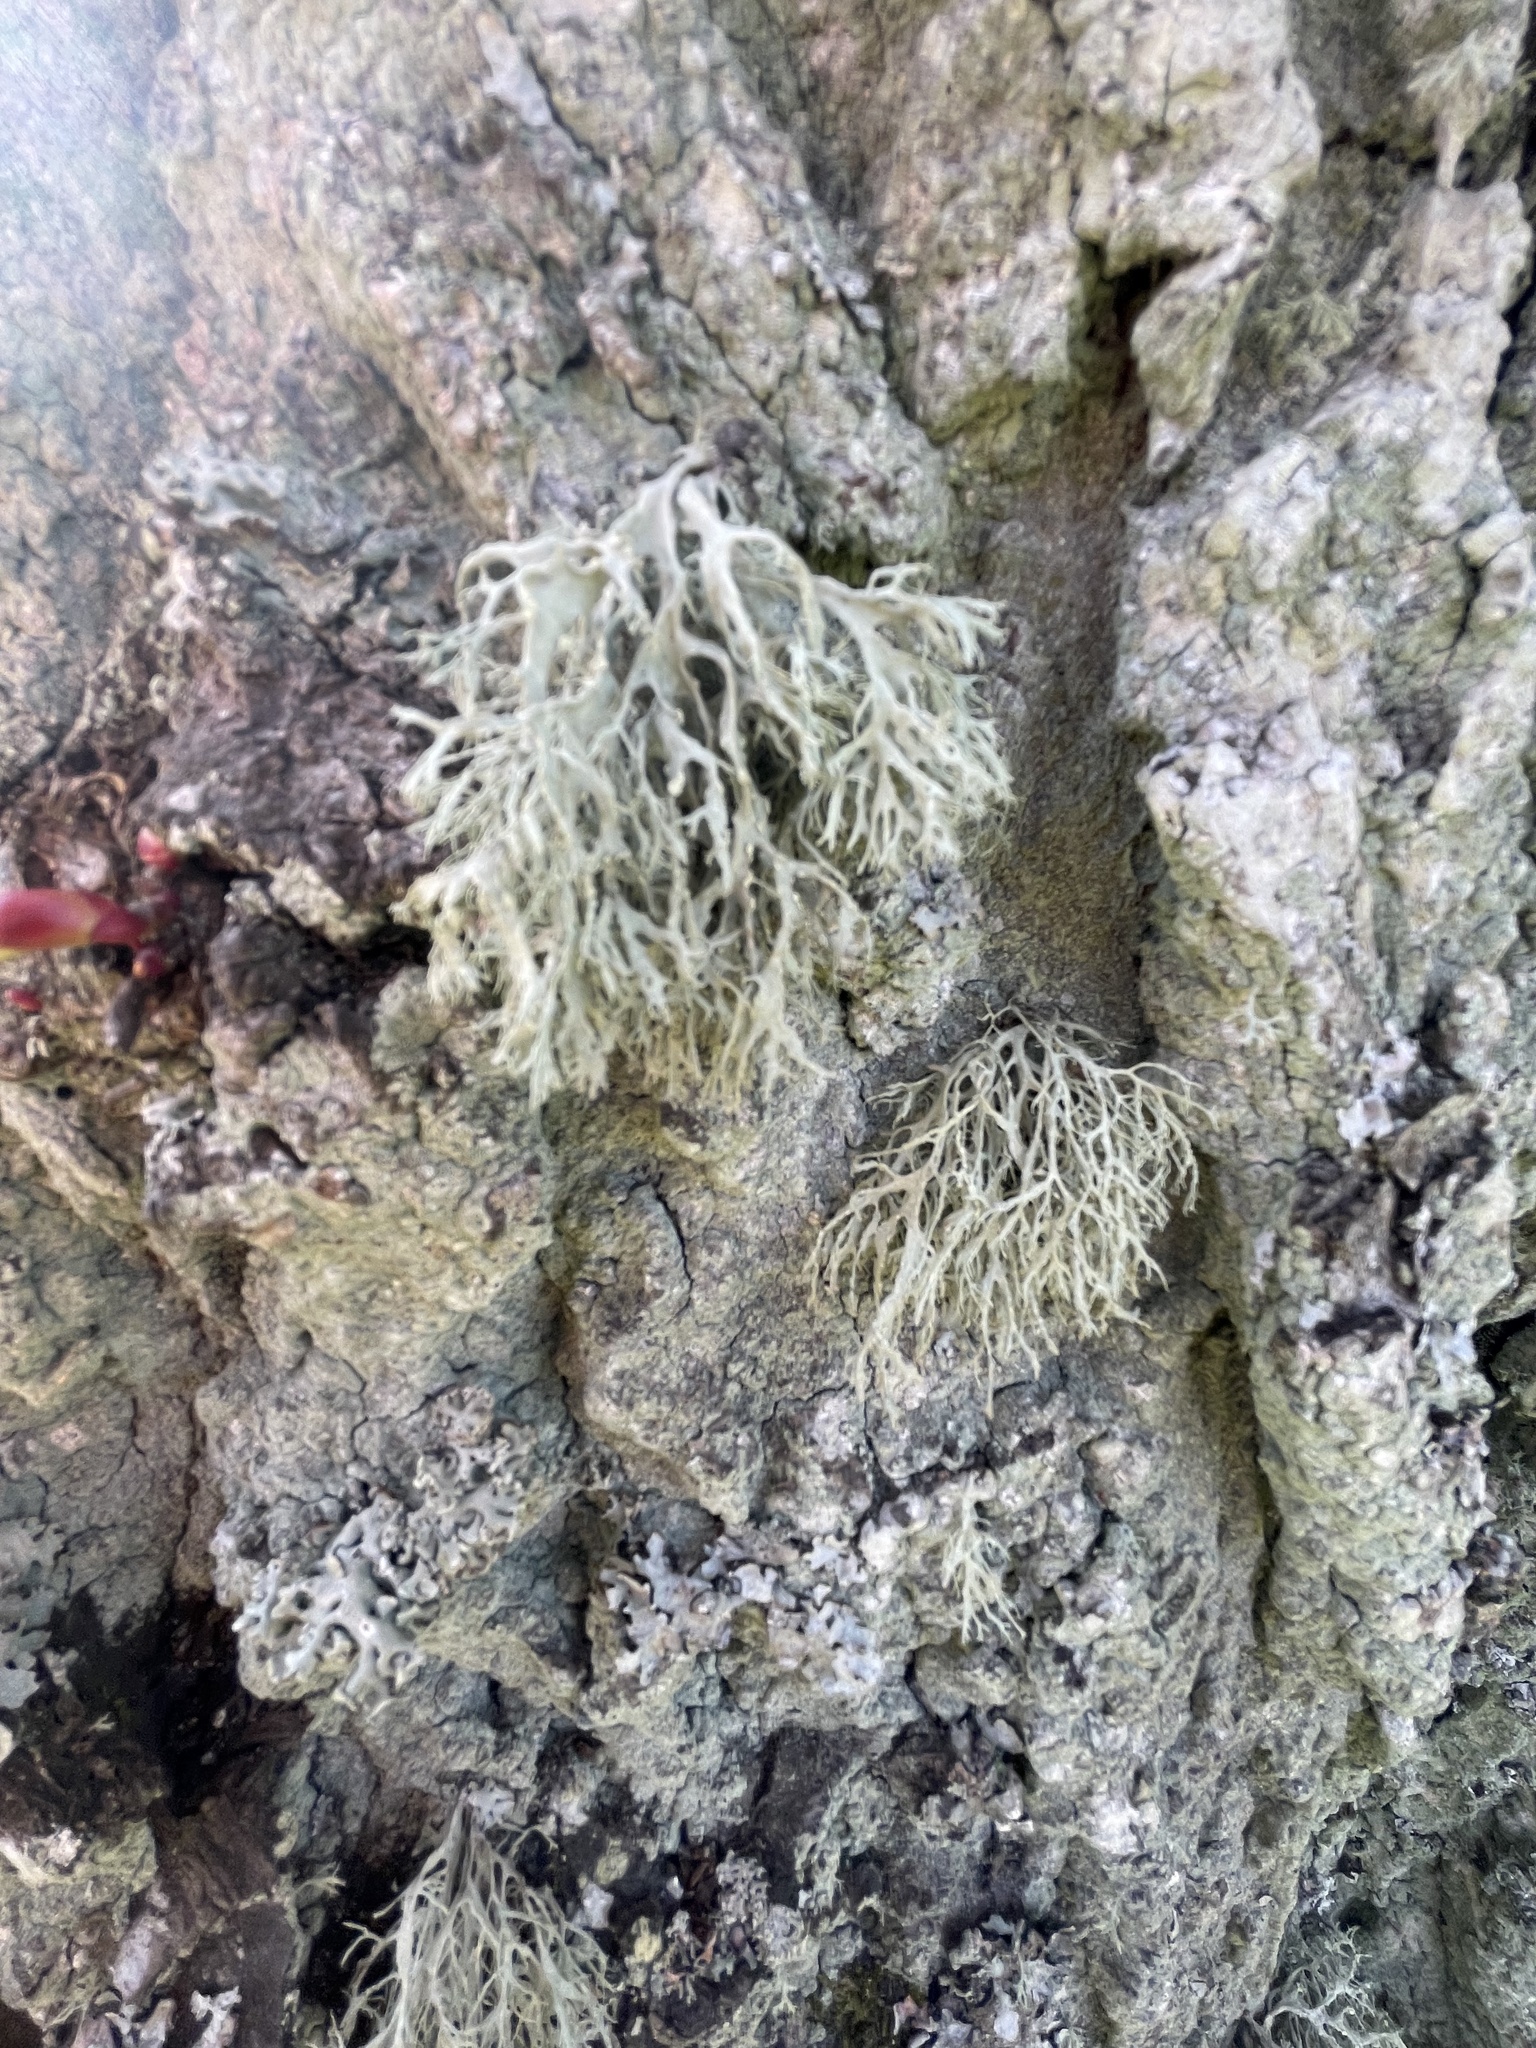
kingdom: Fungi
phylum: Ascomycota
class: Lecanoromycetes
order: Lecanorales
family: Ramalinaceae
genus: Ramalina
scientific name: Ramalina farinacea
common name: Farinose cartilage lichen
